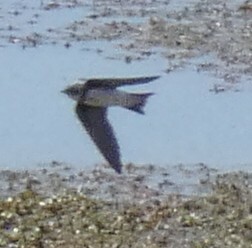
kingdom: Animalia
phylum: Chordata
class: Aves
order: Passeriformes
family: Hirundinidae
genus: Riparia
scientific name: Riparia riparia
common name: Sand martin
